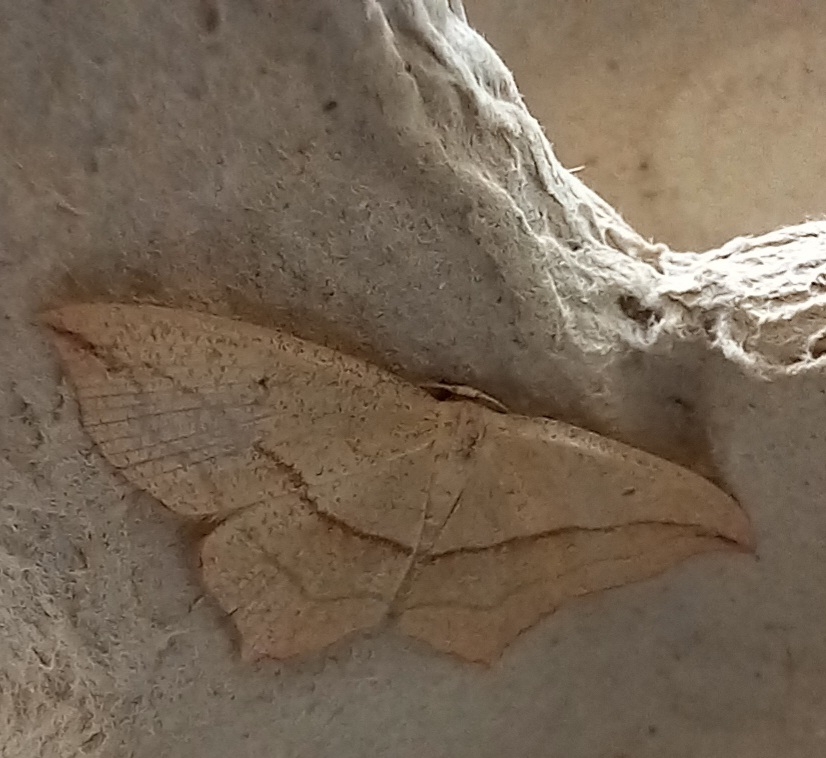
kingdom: Animalia
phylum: Arthropoda
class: Insecta
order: Lepidoptera
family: Geometridae
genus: Timandra
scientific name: Timandra comae
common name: Blood-vein
